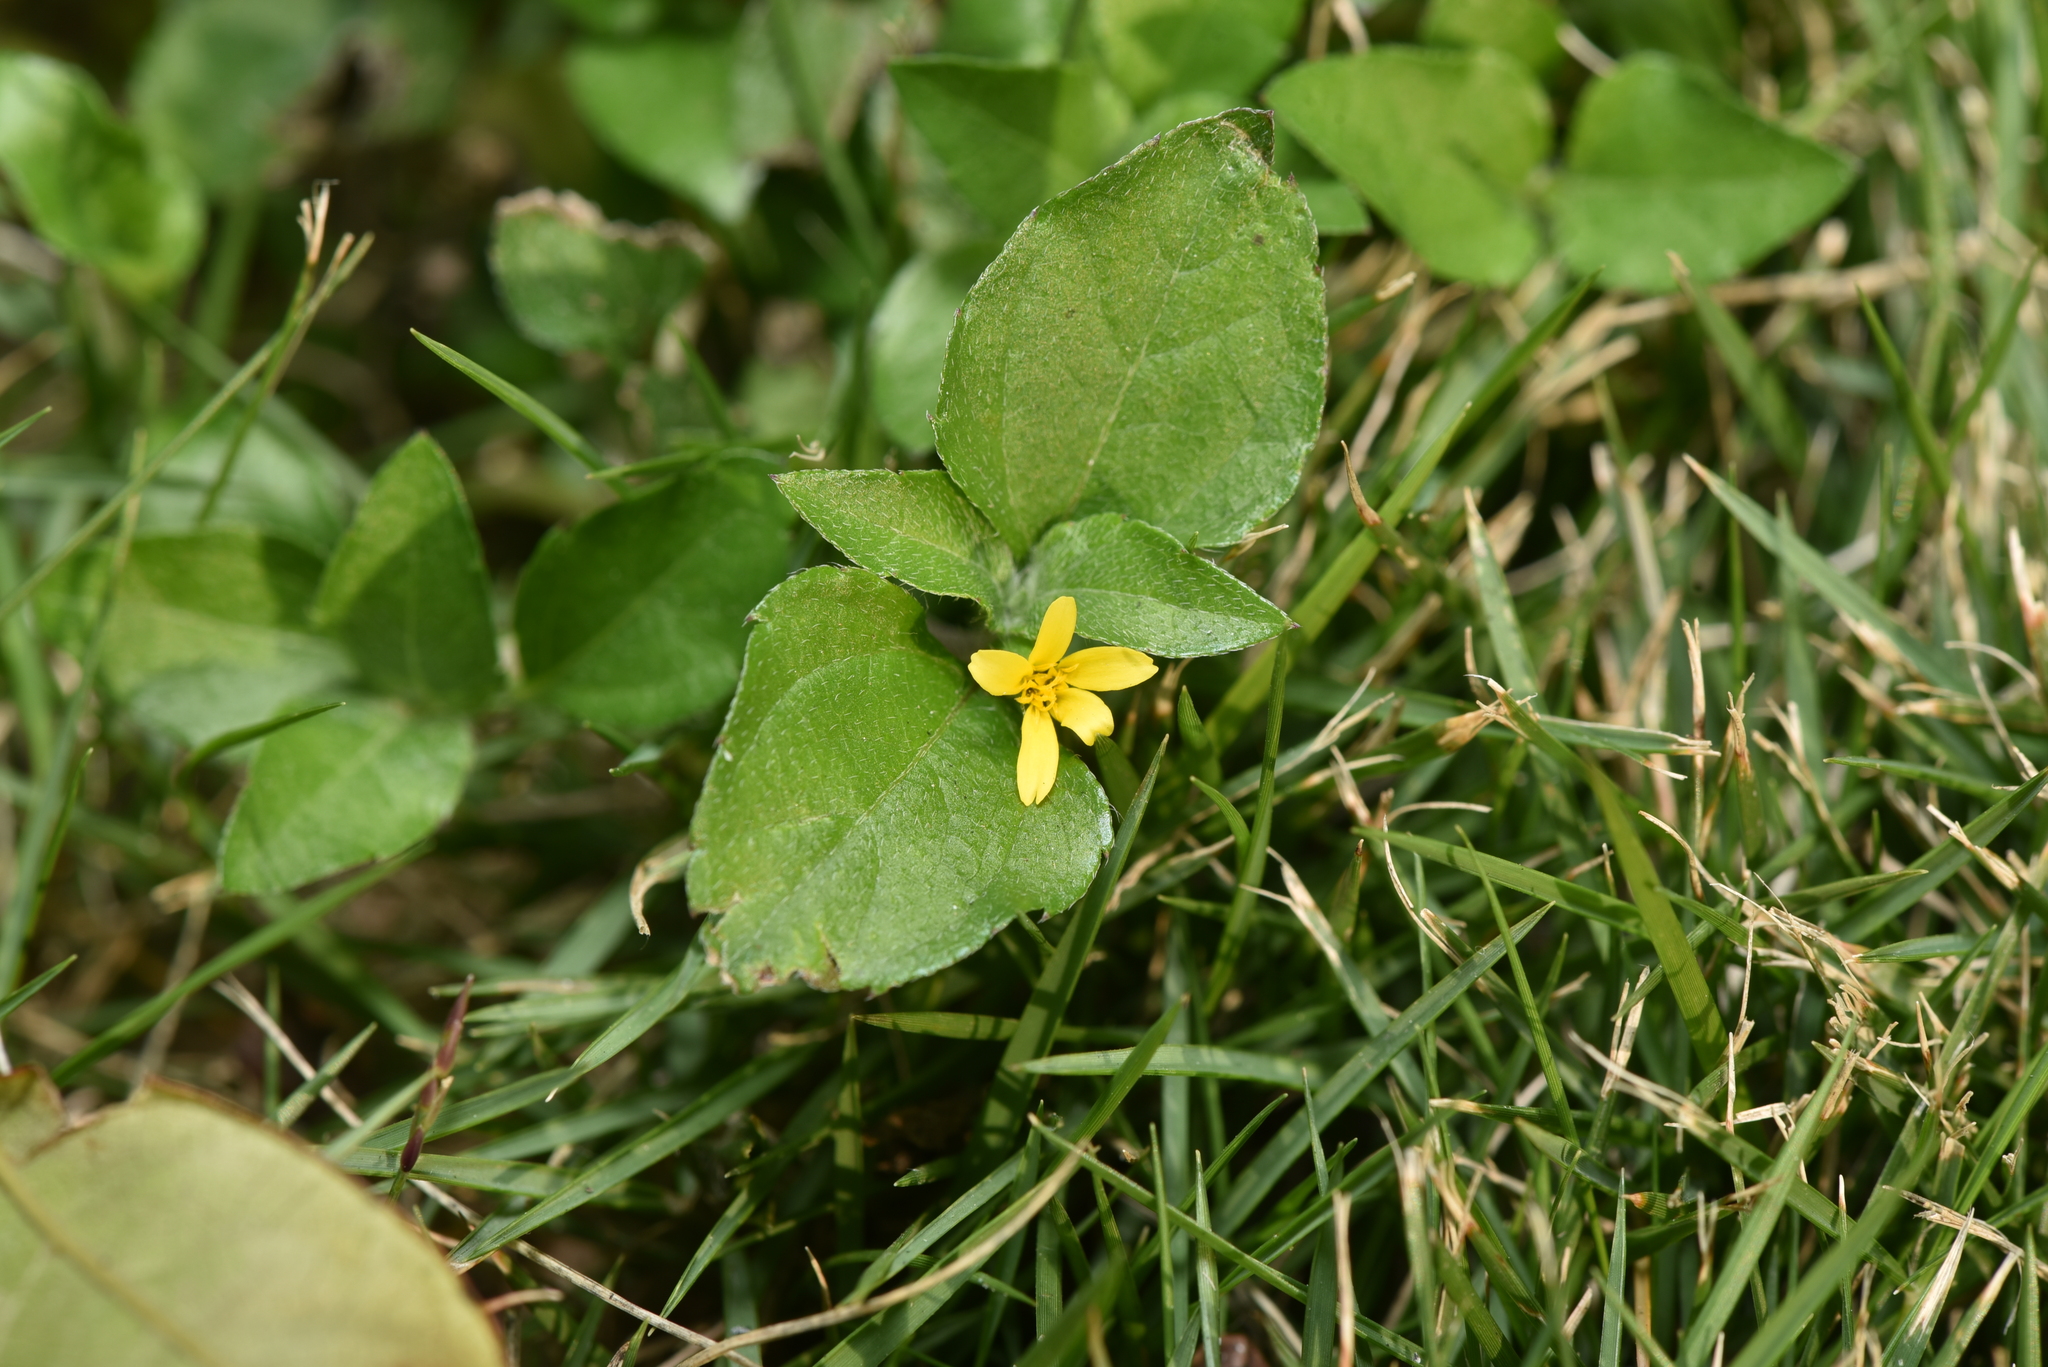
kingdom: Plantae
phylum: Tracheophyta
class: Magnoliopsida
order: Asterales
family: Asteraceae
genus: Calyptocarpus
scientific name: Calyptocarpus vialis
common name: Straggler daisy
